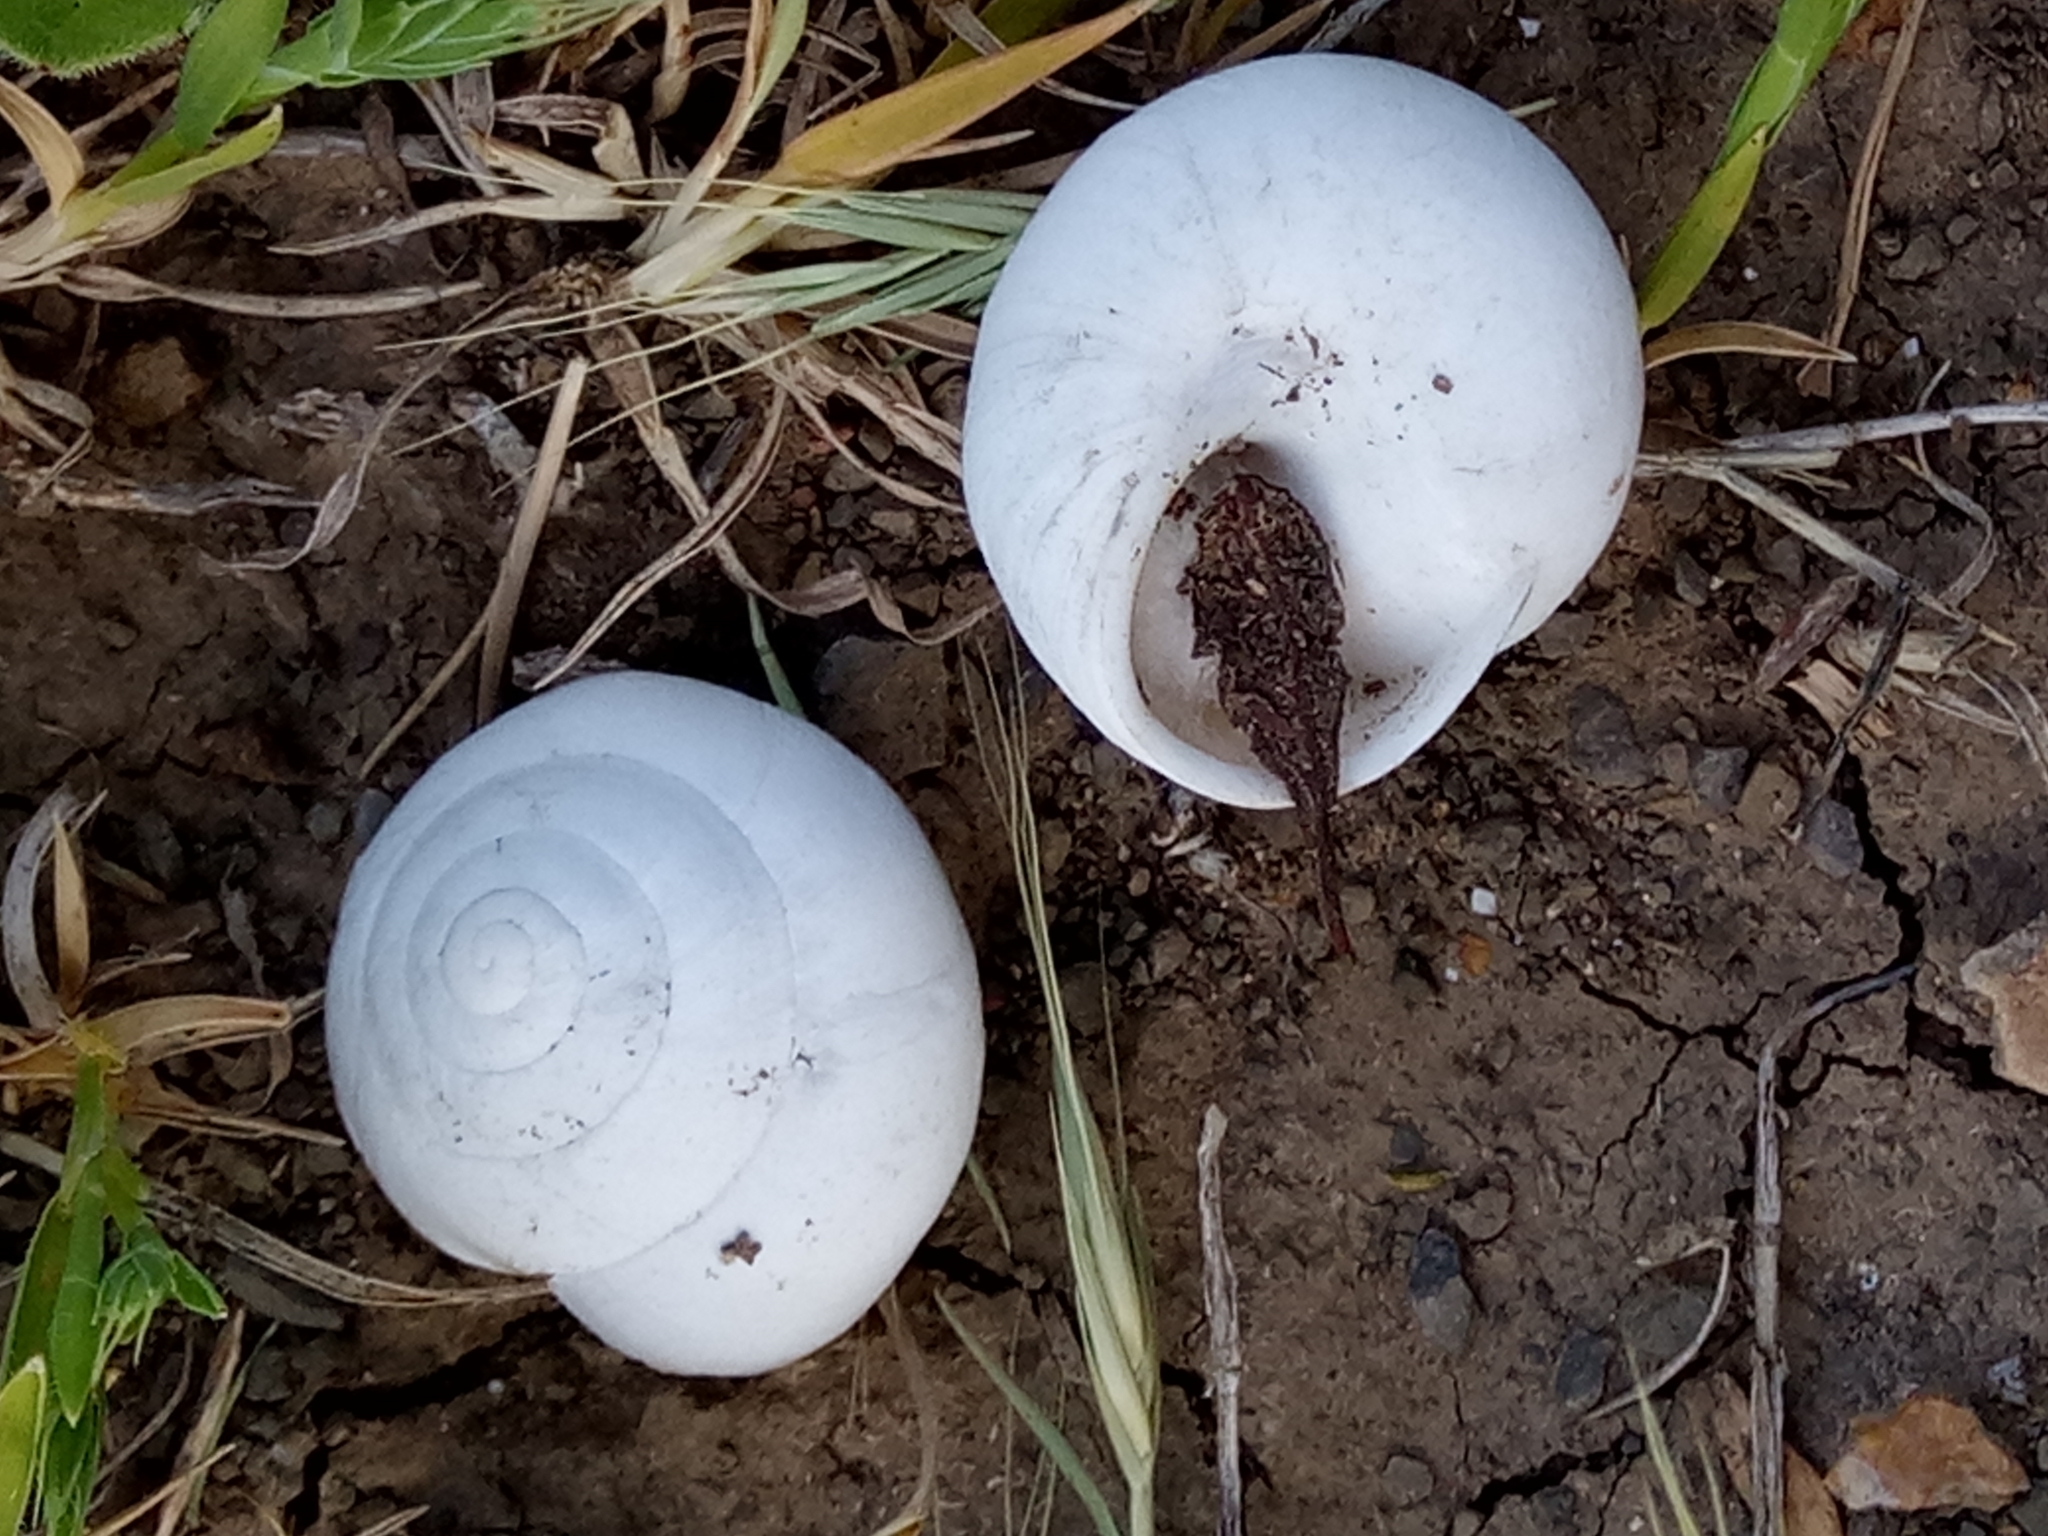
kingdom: Animalia
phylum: Mollusca
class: Gastropoda
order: Stylommatophora
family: Sphincterochilidae
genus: Sphincterochila
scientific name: Sphincterochila candidissima
